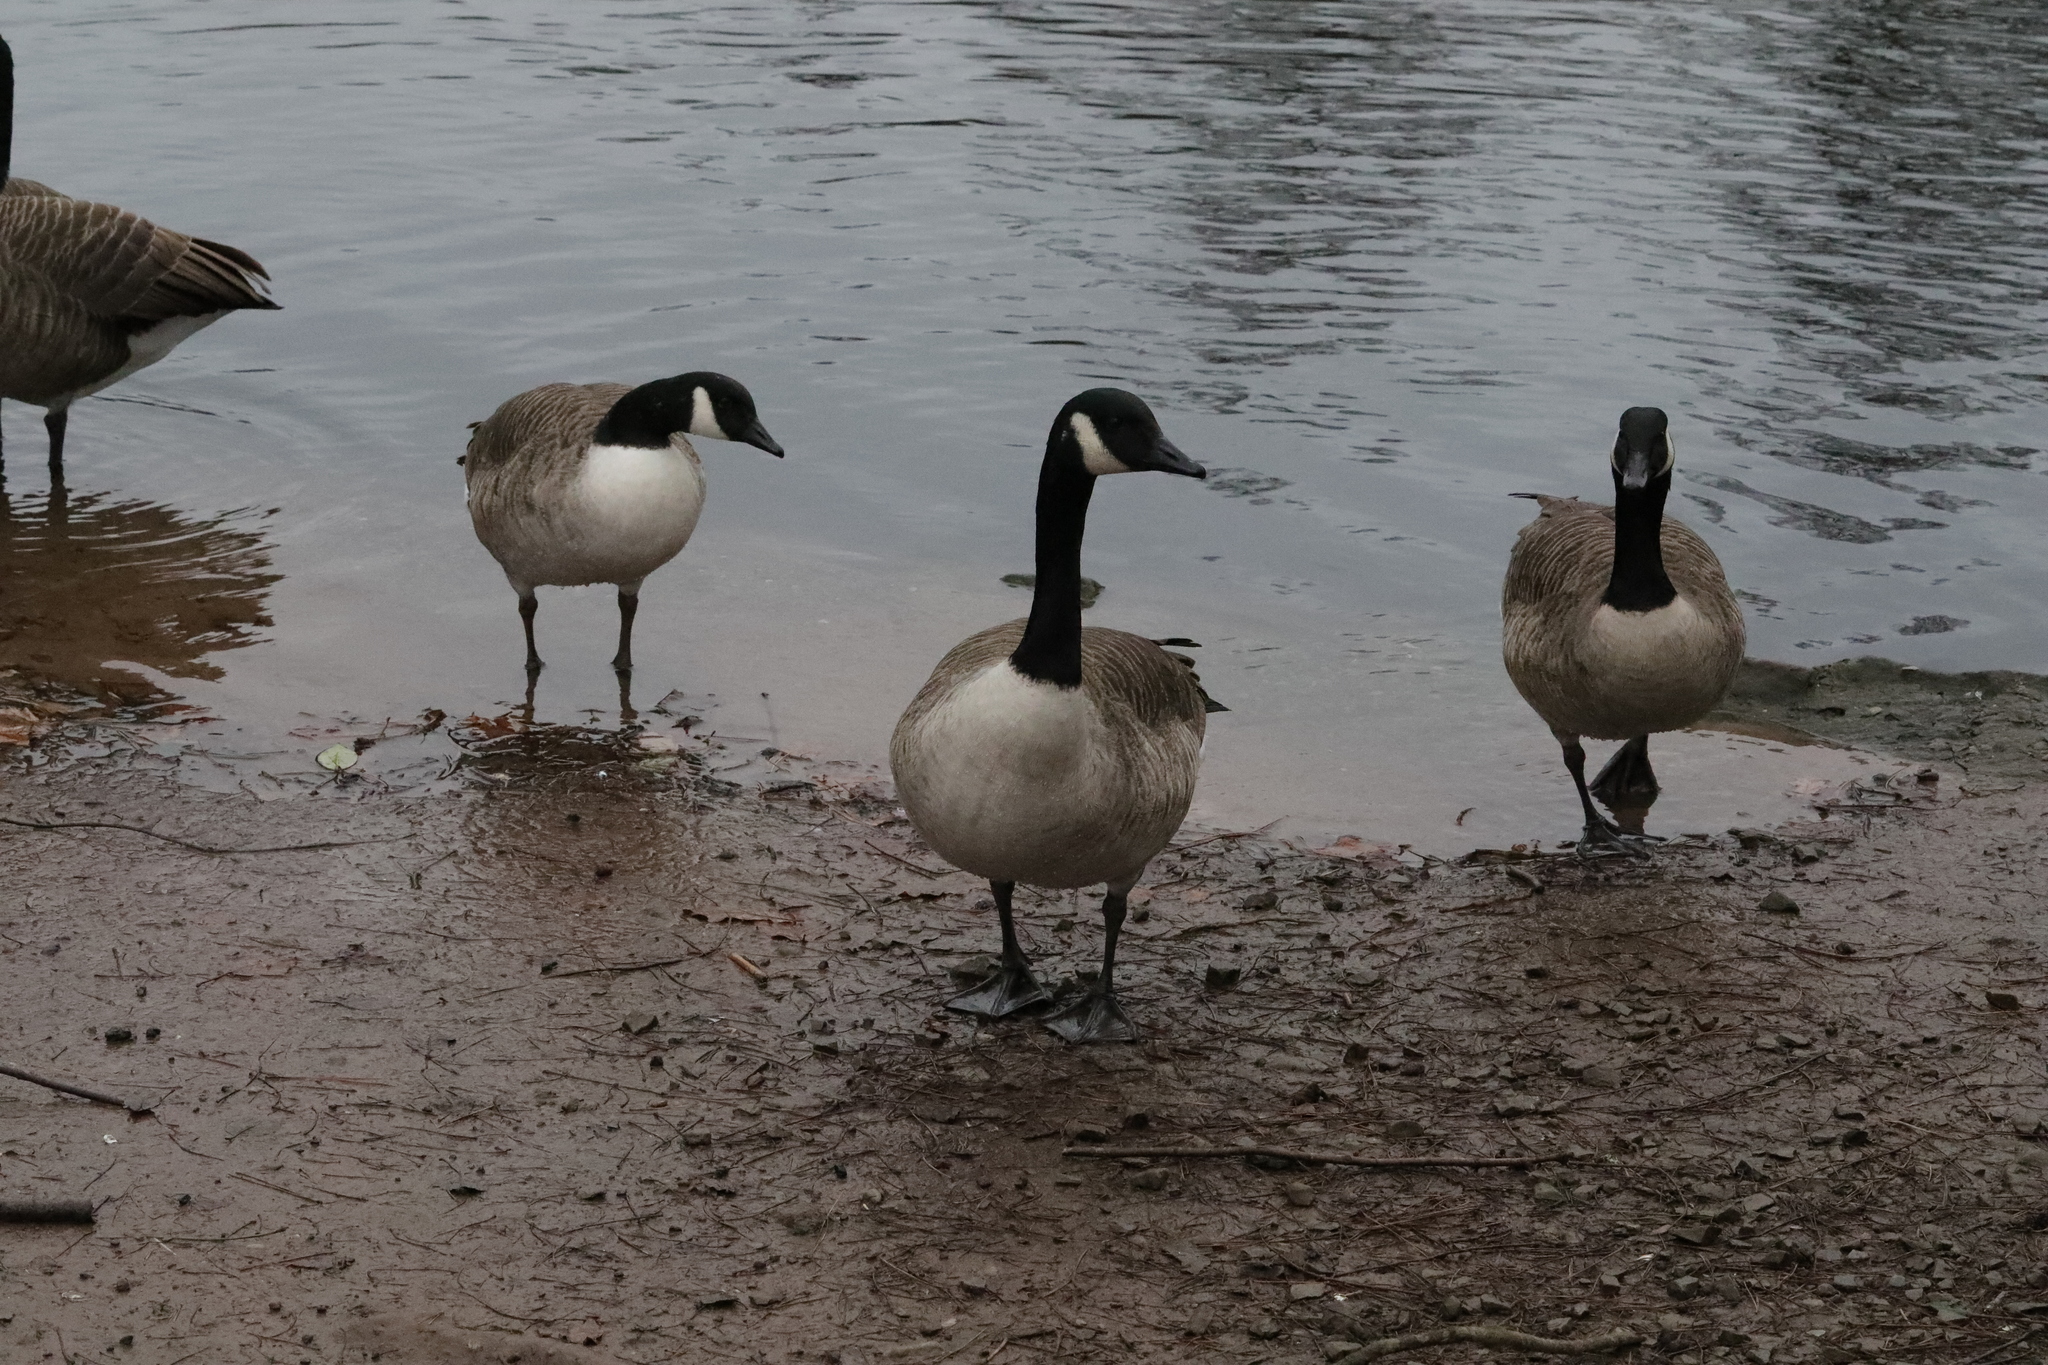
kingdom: Animalia
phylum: Chordata
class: Aves
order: Anseriformes
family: Anatidae
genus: Branta
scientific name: Branta canadensis
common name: Canada goose
